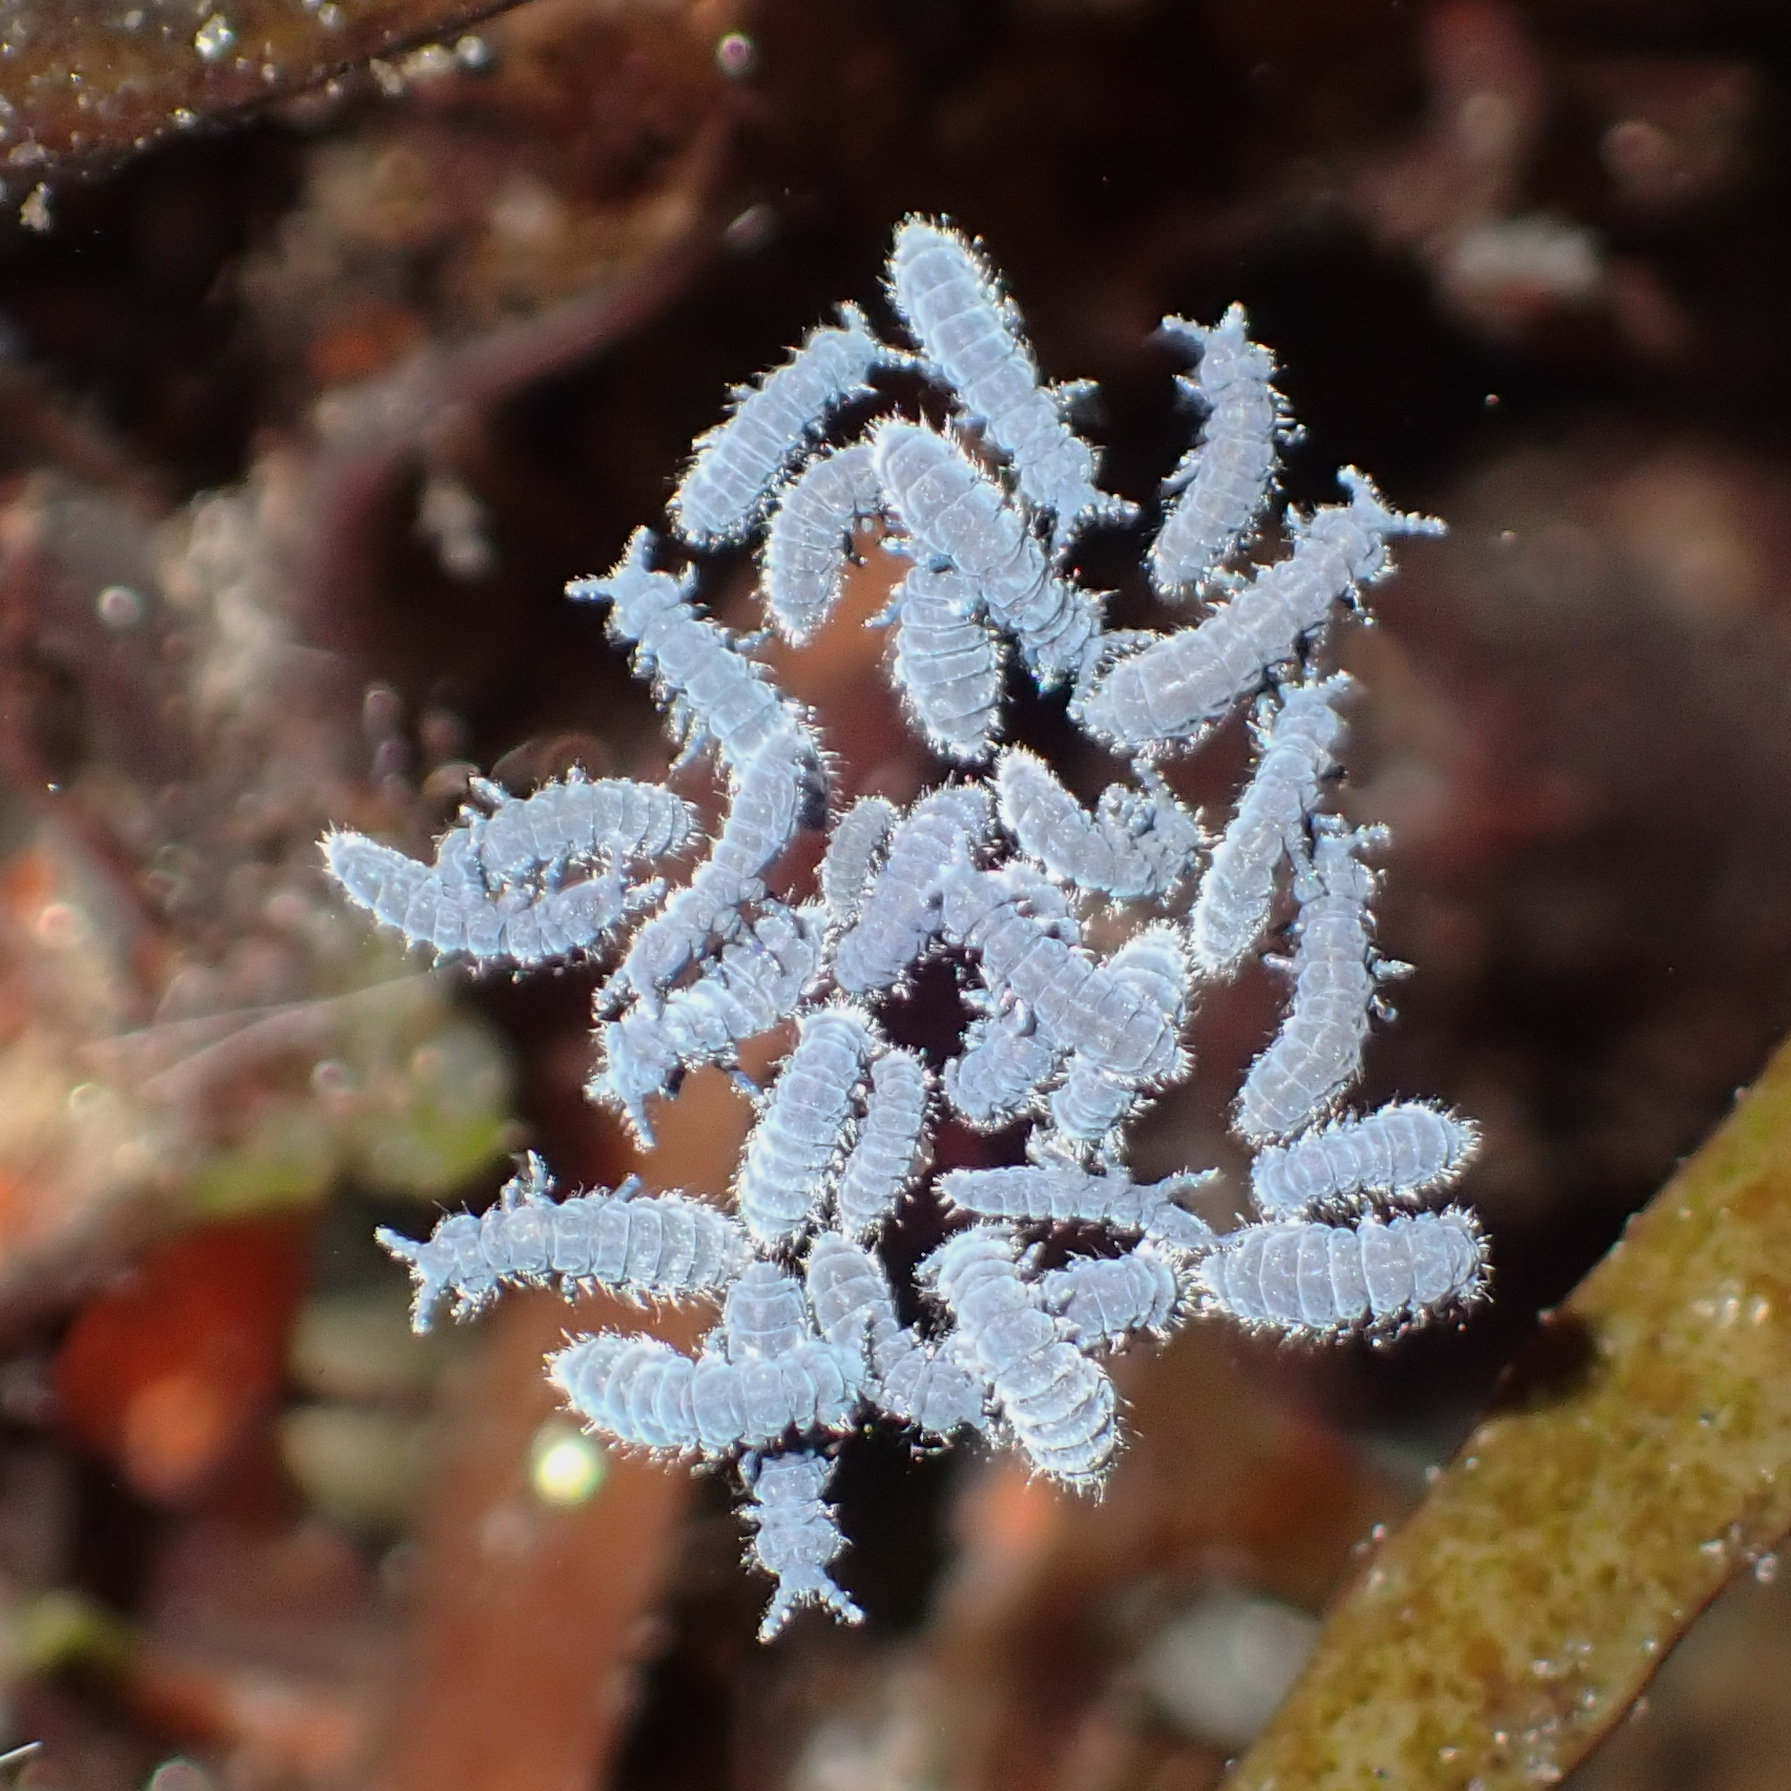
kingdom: Animalia
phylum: Arthropoda
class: Collembola
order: Poduromorpha
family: Neanuridae
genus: Anurida
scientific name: Anurida maritima
